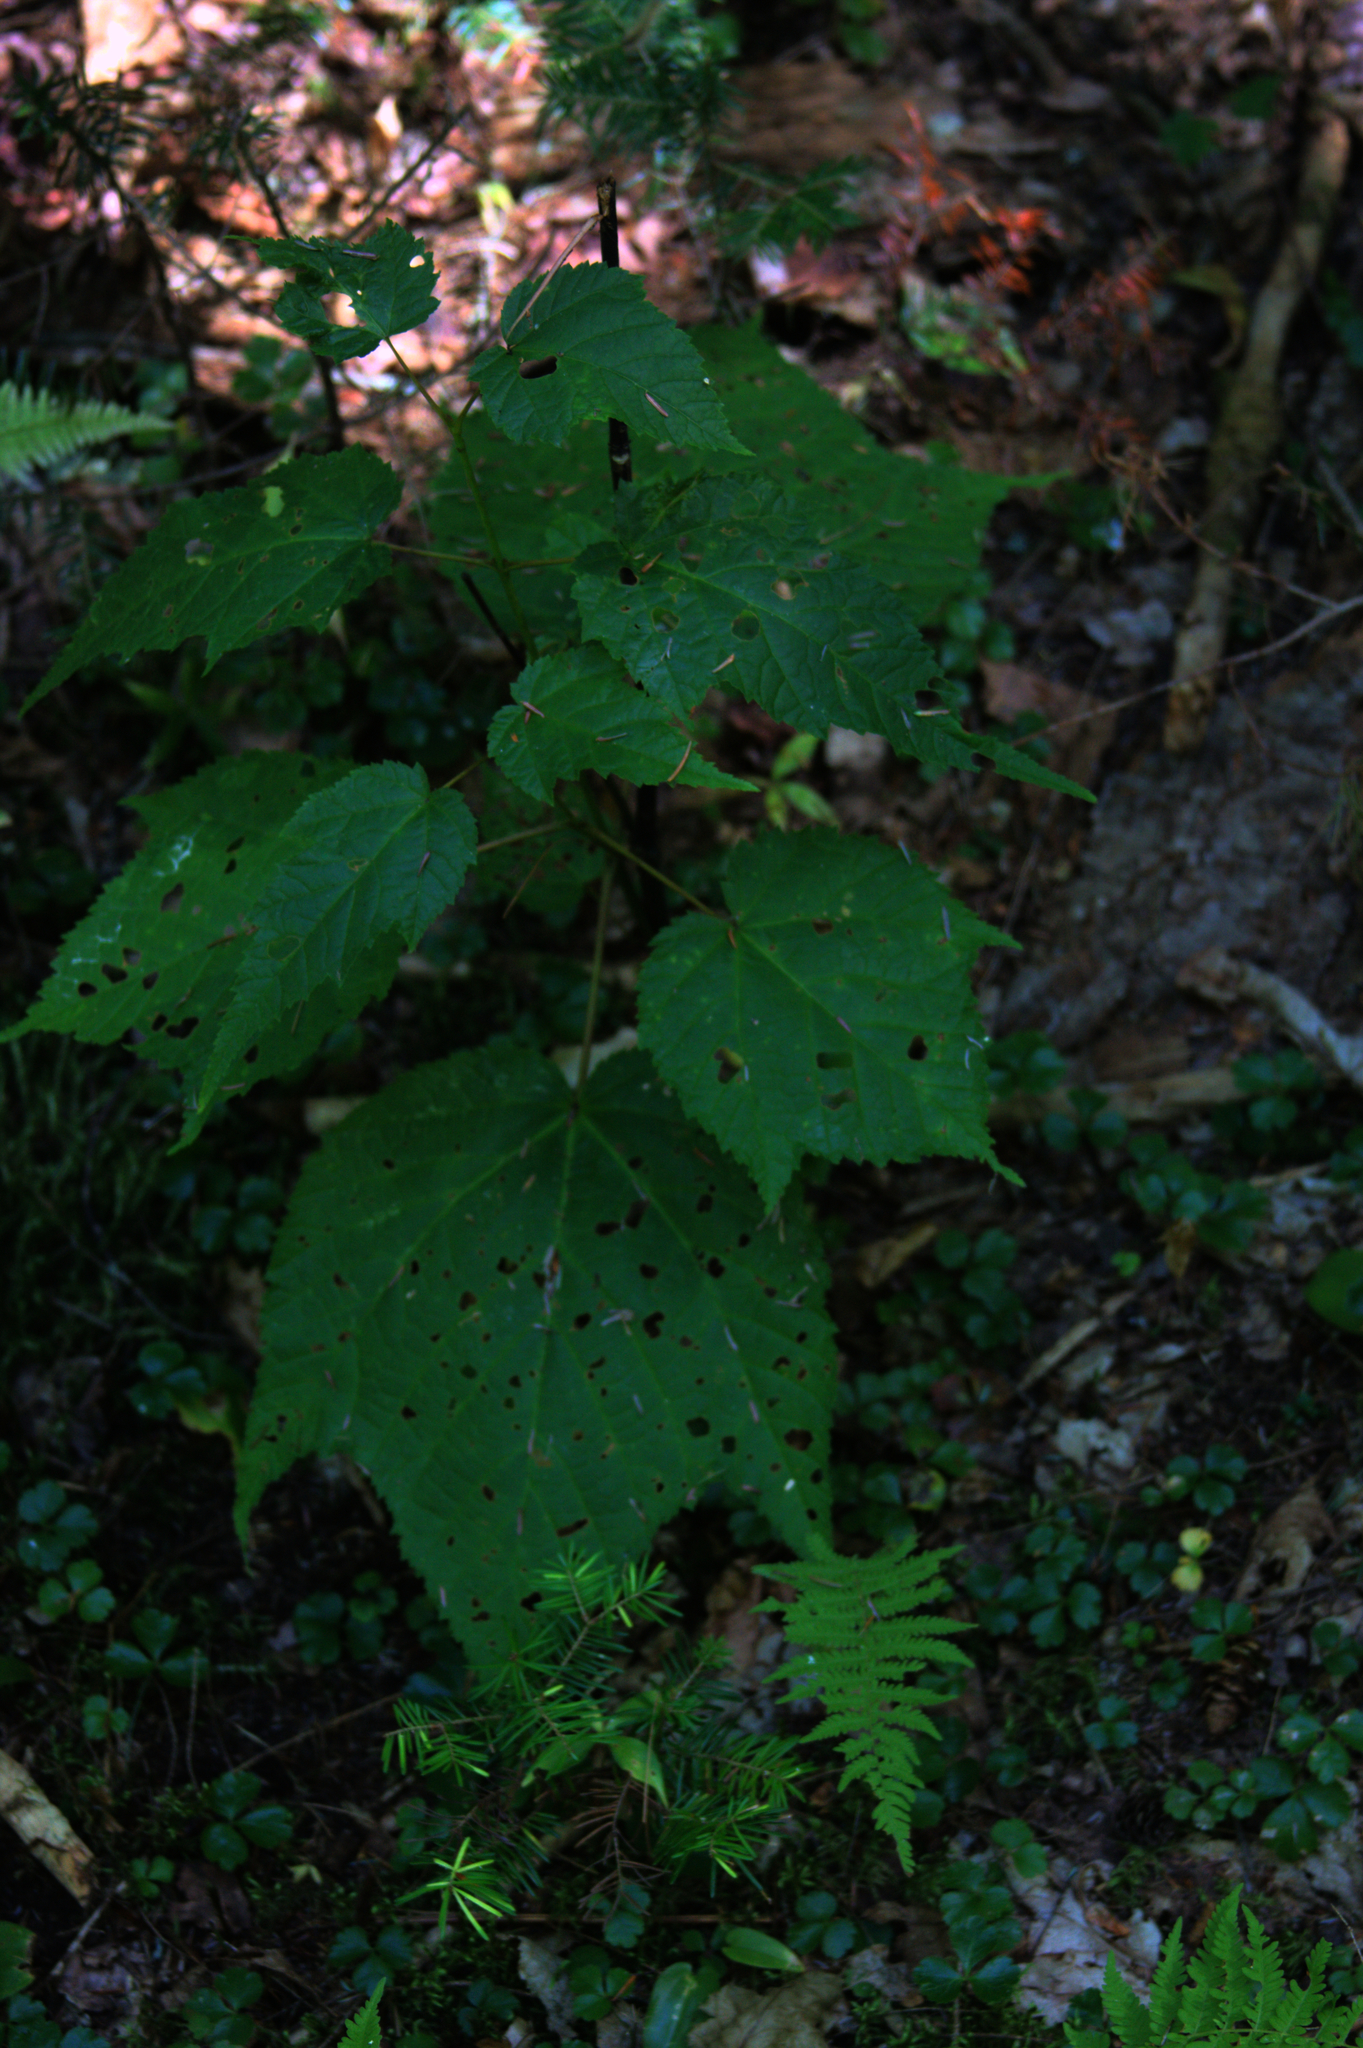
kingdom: Plantae
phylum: Tracheophyta
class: Magnoliopsida
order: Sapindales
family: Sapindaceae
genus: Acer
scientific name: Acer pensylvanicum
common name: Moosewood
